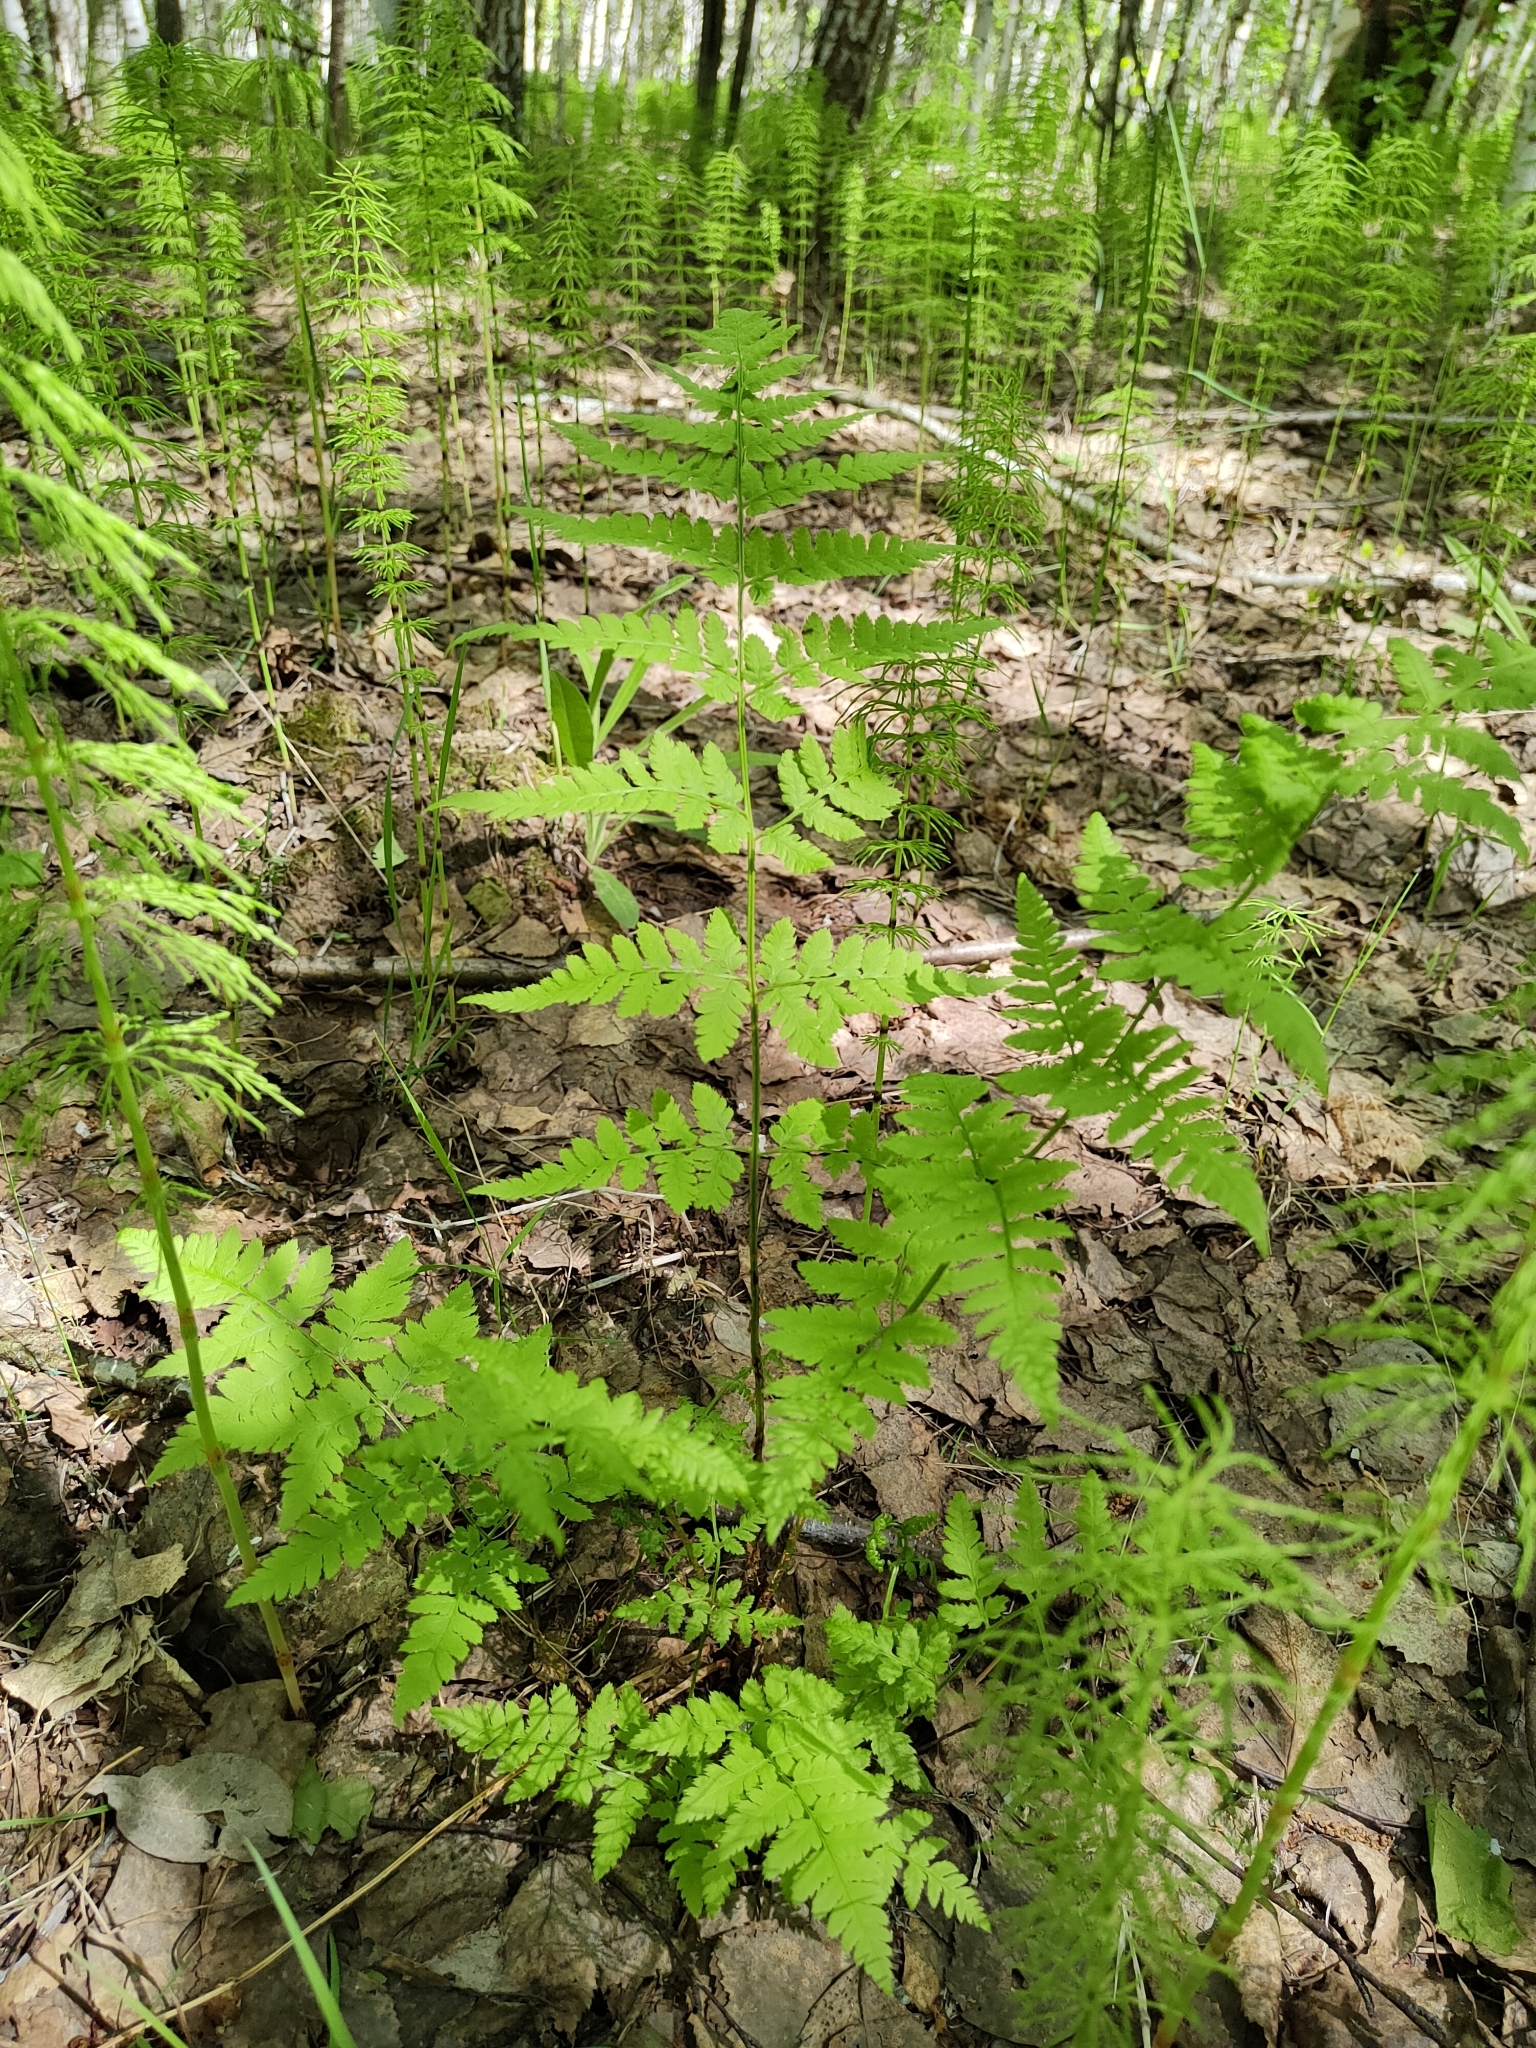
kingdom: Plantae
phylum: Tracheophyta
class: Polypodiopsida
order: Polypodiales
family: Dryopteridaceae
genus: Dryopteris
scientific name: Dryopteris carthusiana
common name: Narrow buckler-fern
